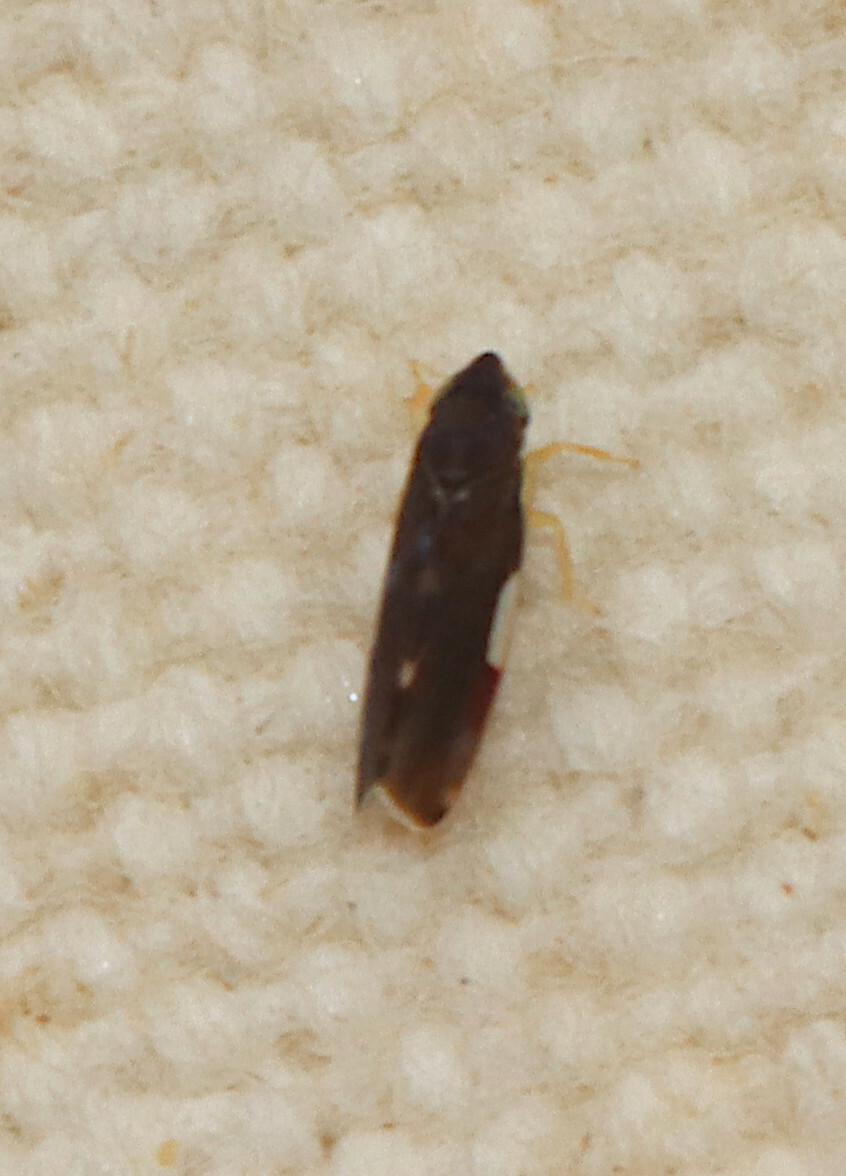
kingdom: Animalia
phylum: Arthropoda
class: Insecta
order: Hemiptera
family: Cicadellidae
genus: Erythroneura
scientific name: Erythroneura infuscata
